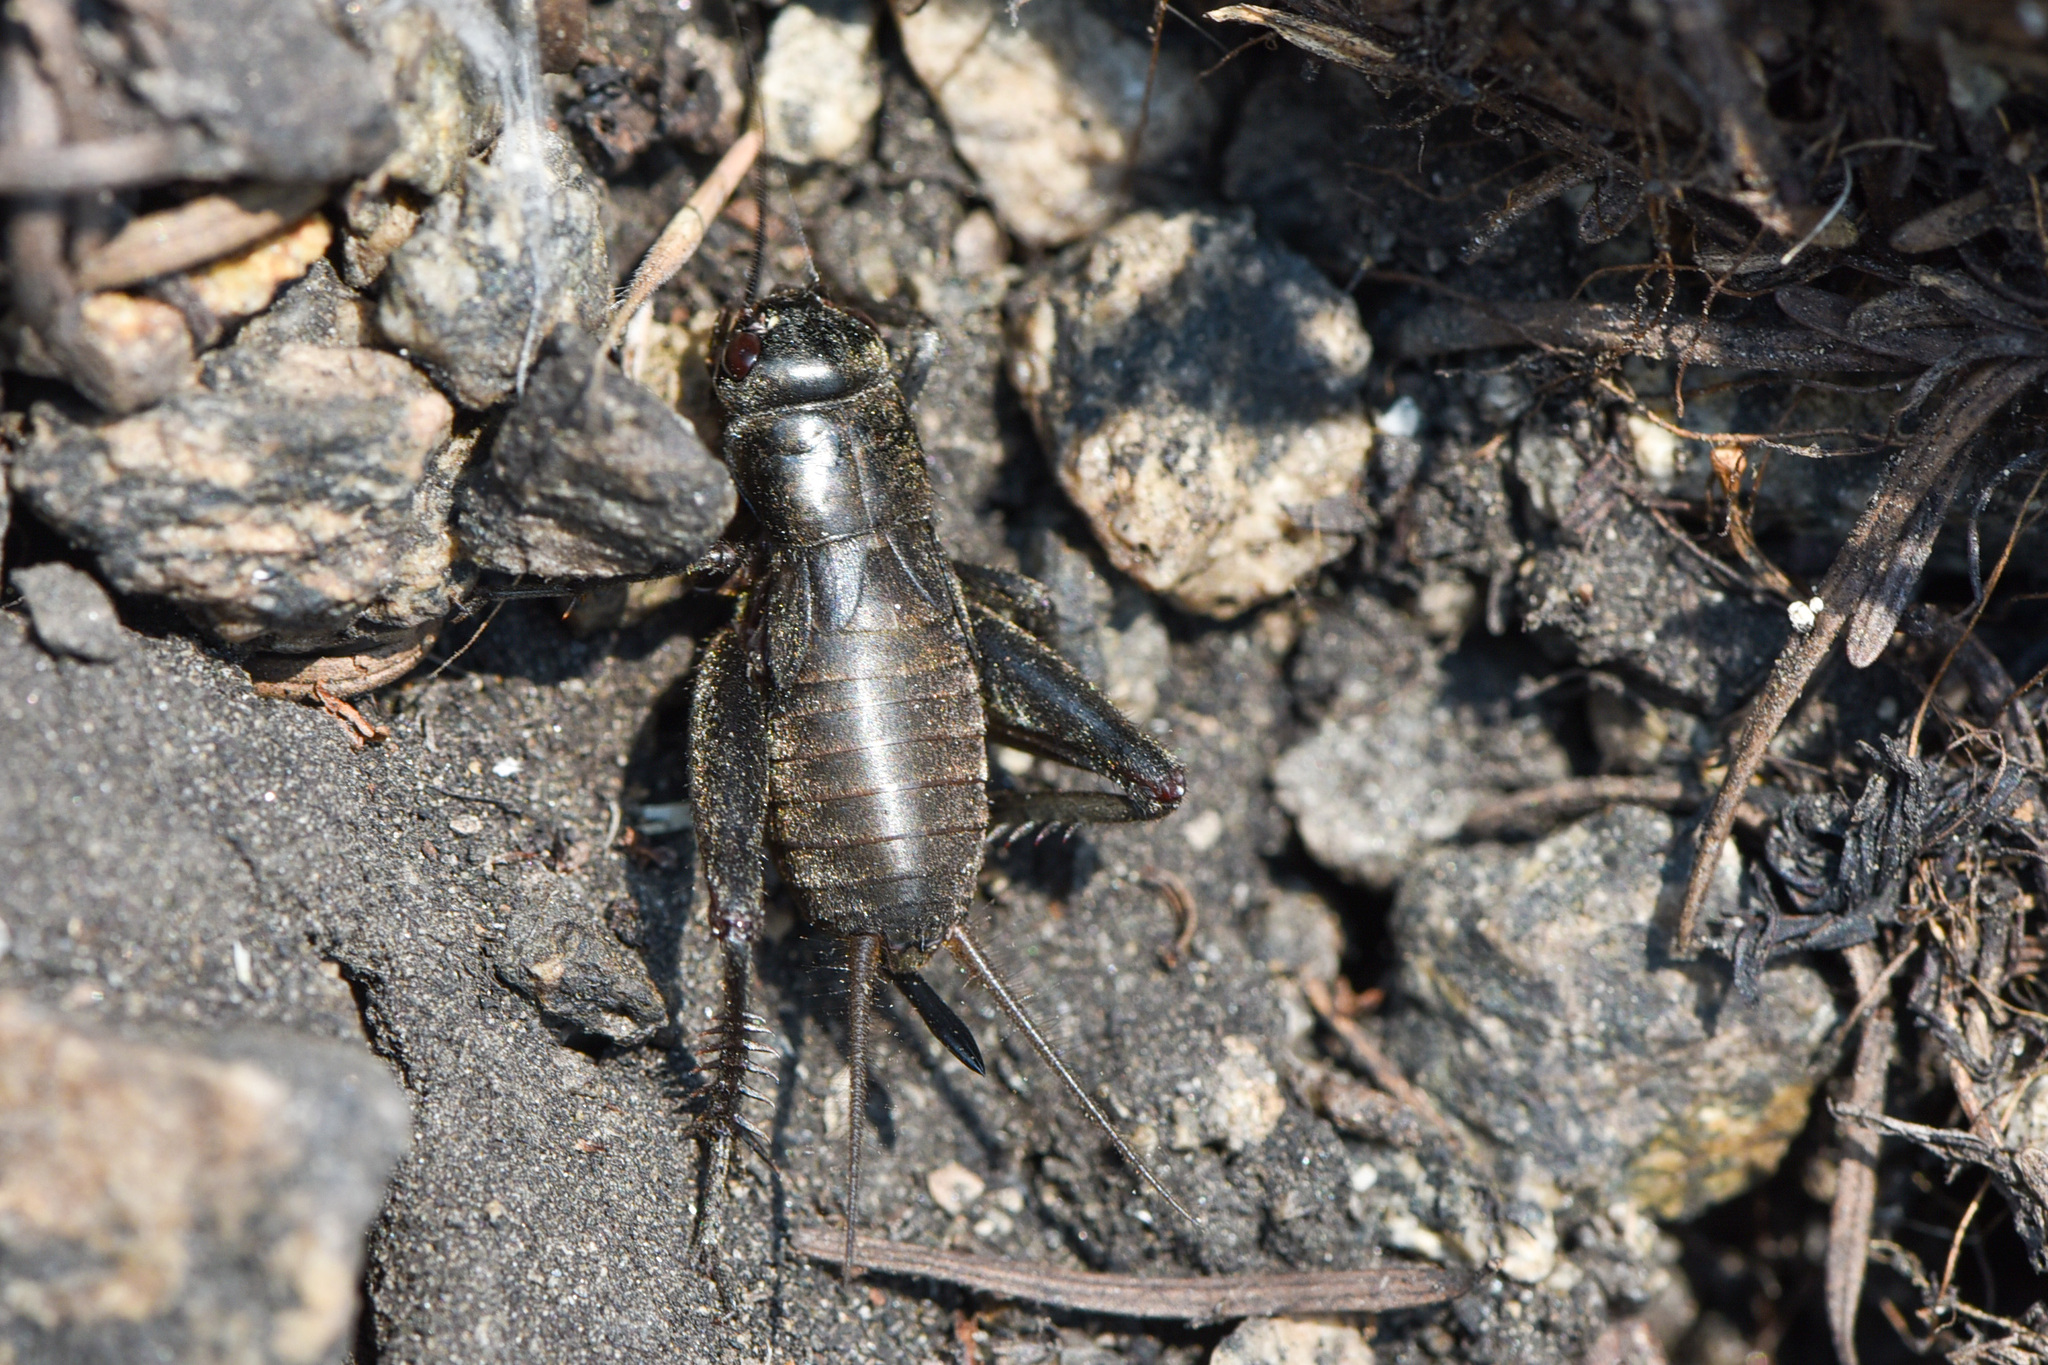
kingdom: Animalia
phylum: Arthropoda
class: Insecta
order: Orthoptera
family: Gryllidae
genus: Gryllus
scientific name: Gryllus saxatilis
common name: Western rock-loving field cricket
